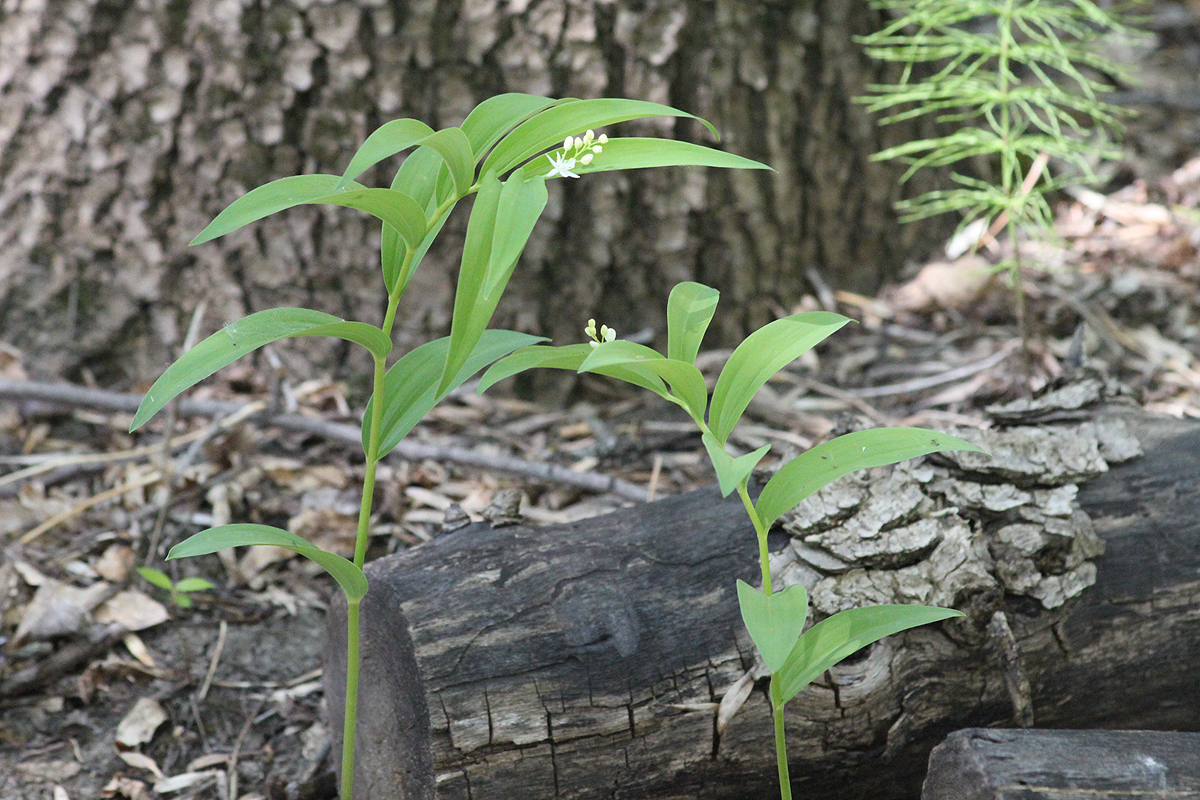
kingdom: Plantae
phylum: Tracheophyta
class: Liliopsida
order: Asparagales
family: Asparagaceae
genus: Maianthemum
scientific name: Maianthemum stellatum
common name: Little false solomon's seal
